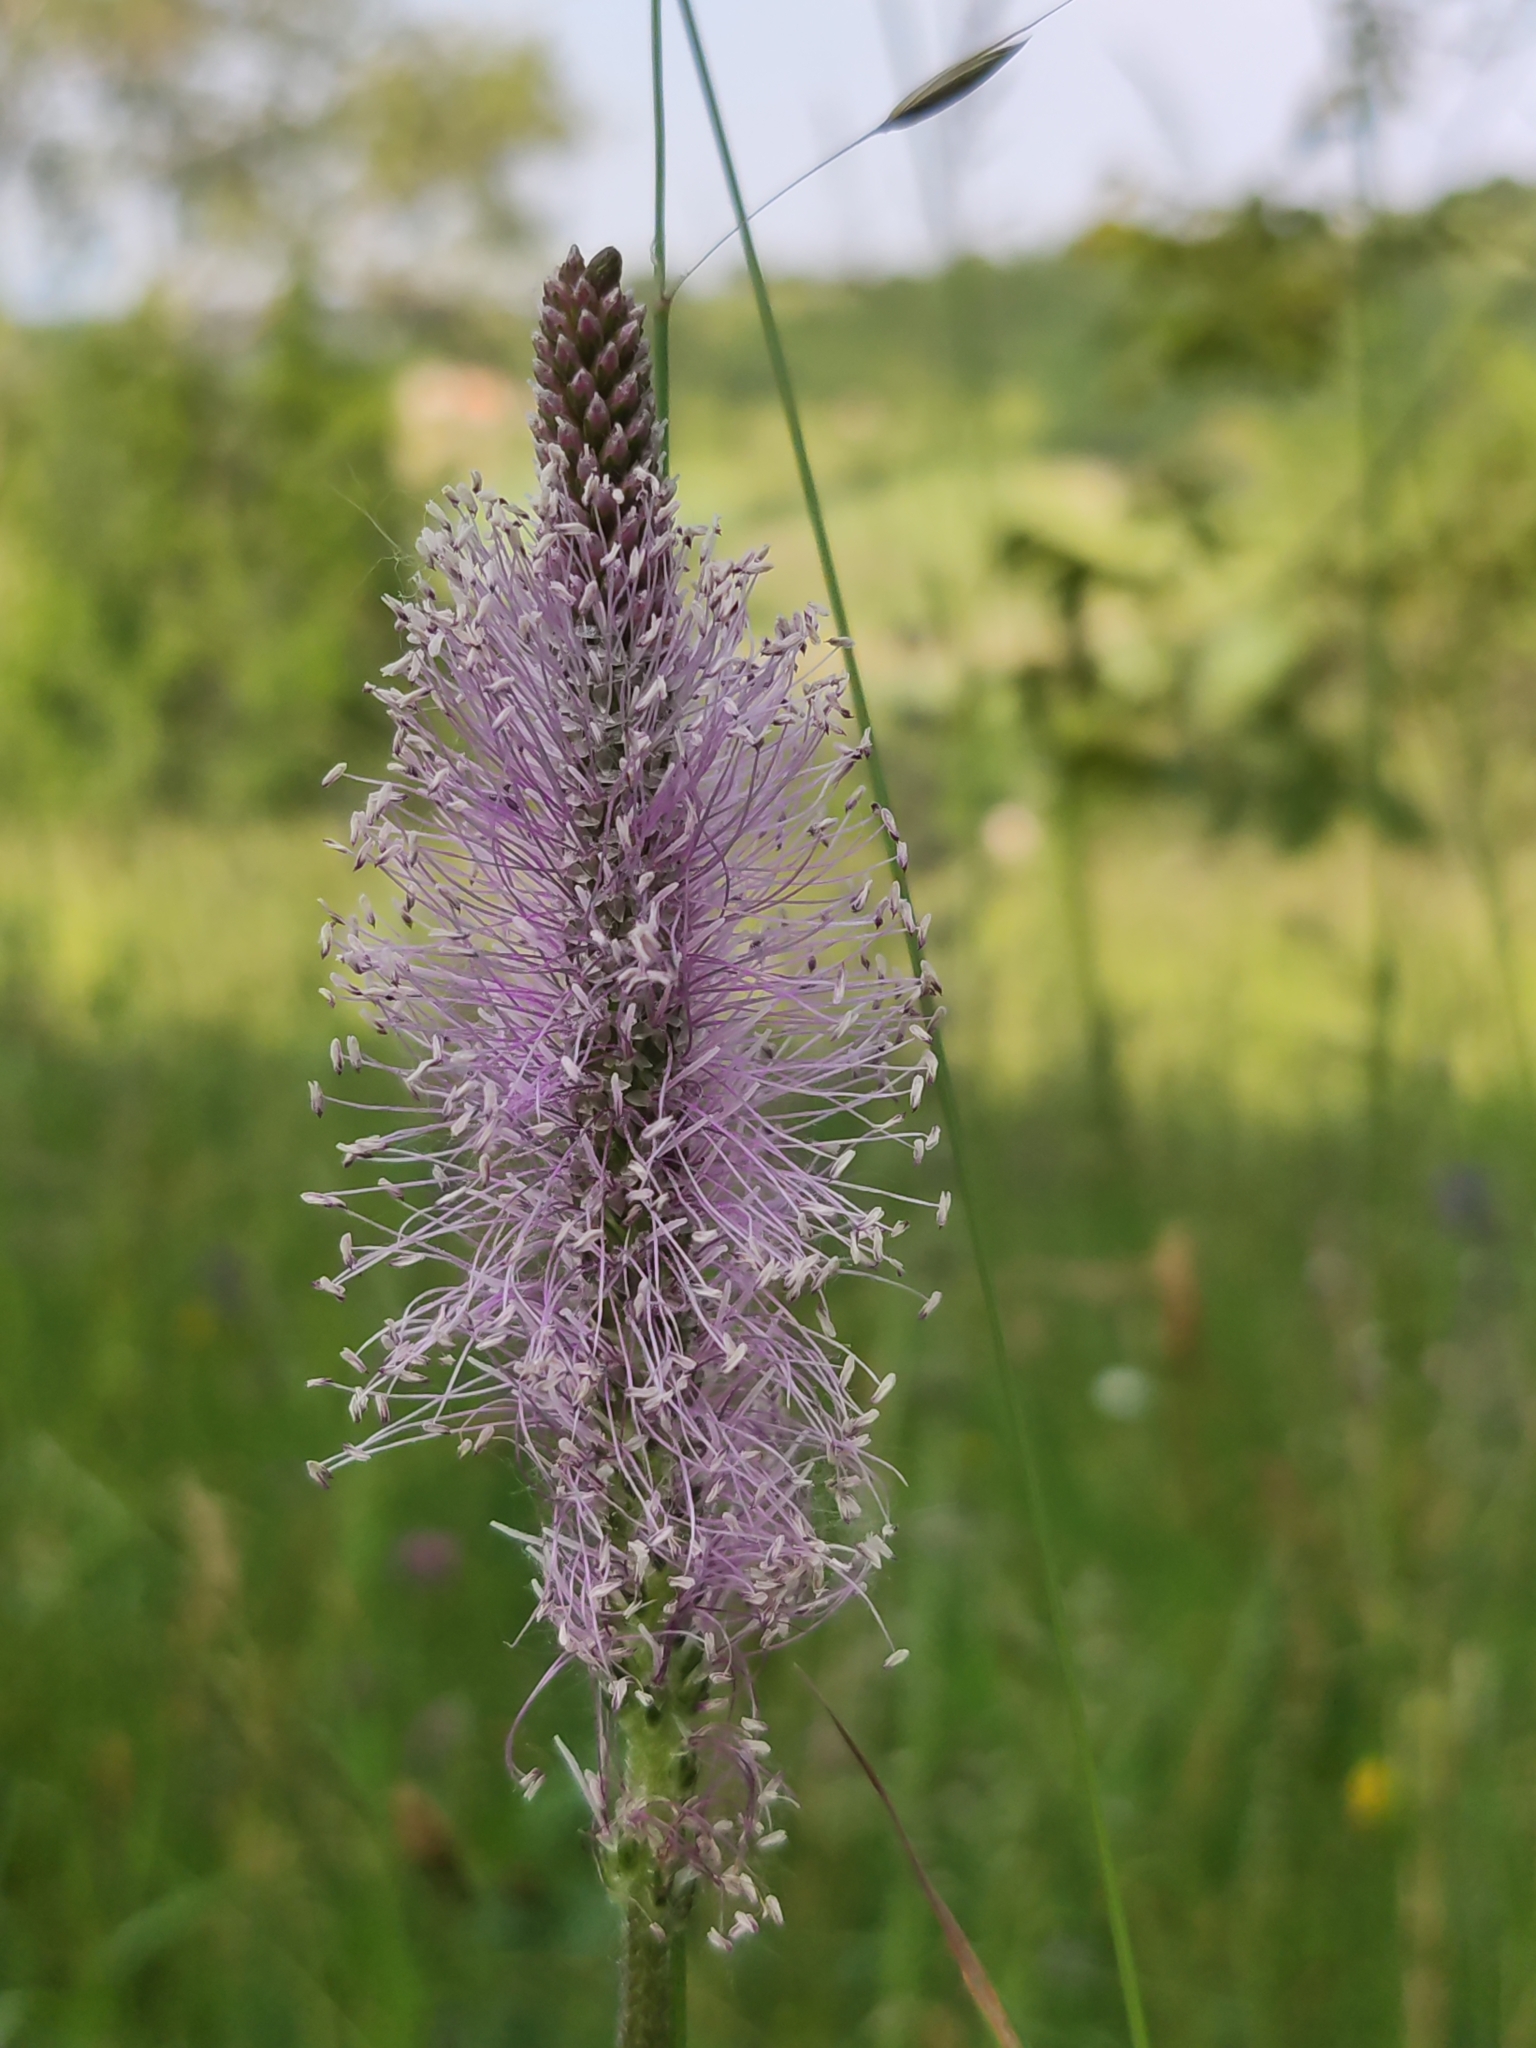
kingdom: Plantae
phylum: Tracheophyta
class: Magnoliopsida
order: Lamiales
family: Plantaginaceae
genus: Plantago
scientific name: Plantago media
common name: Hoary plantain
